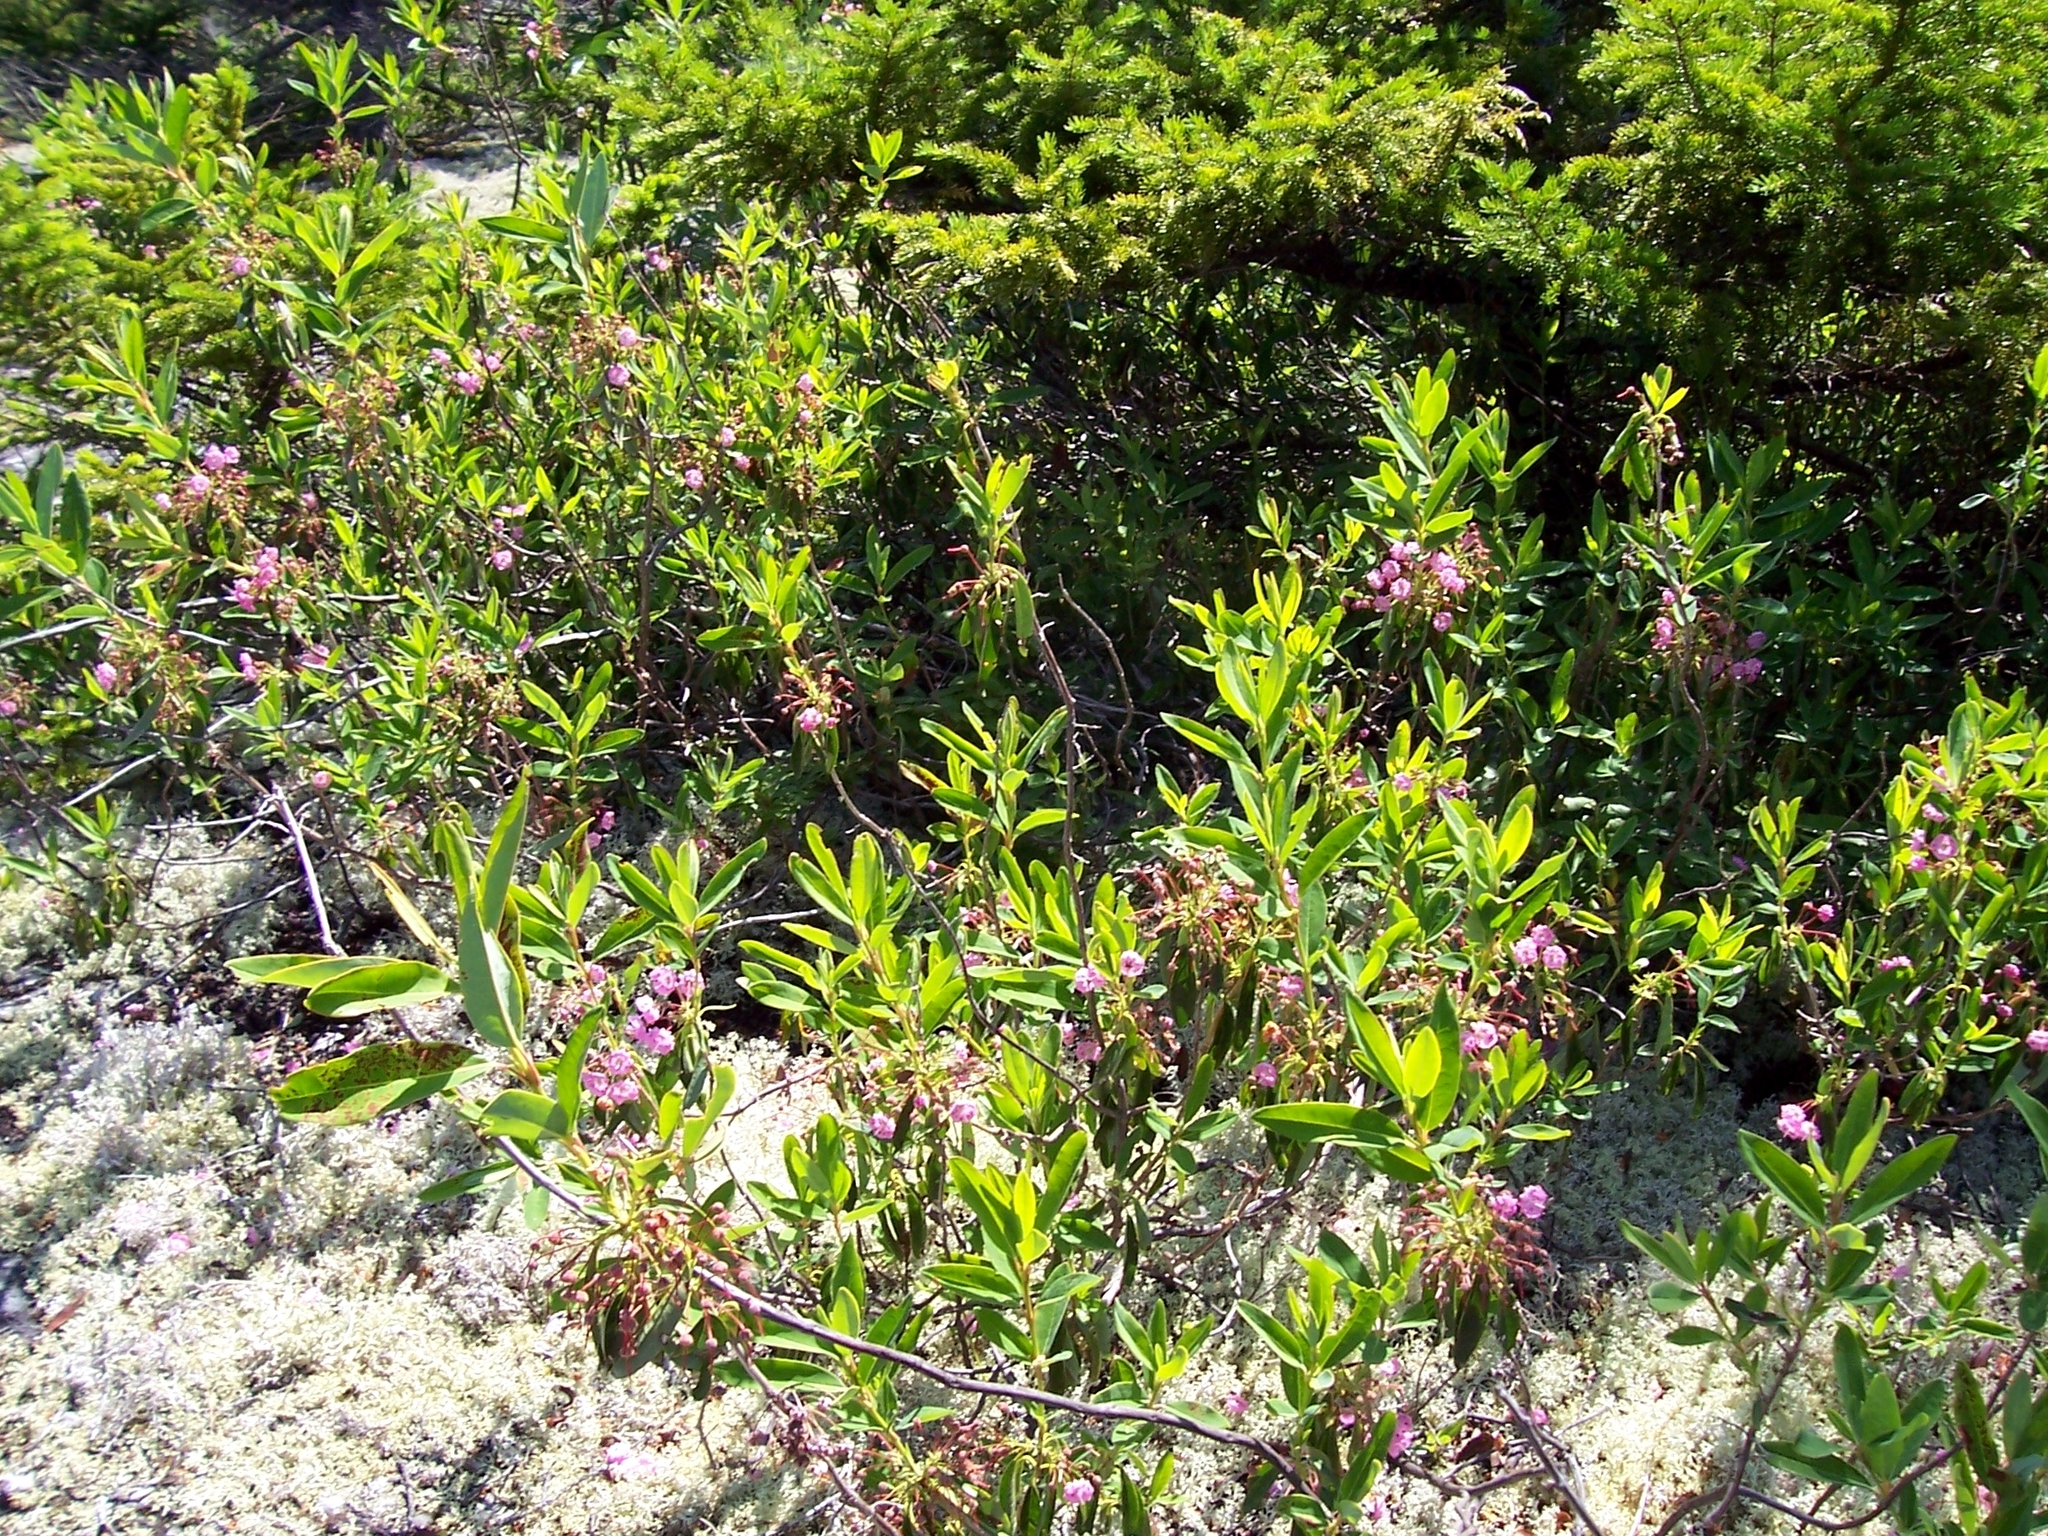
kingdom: Plantae
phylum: Tracheophyta
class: Magnoliopsida
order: Ericales
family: Ericaceae
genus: Kalmia
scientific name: Kalmia angustifolia
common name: Sheep-laurel
